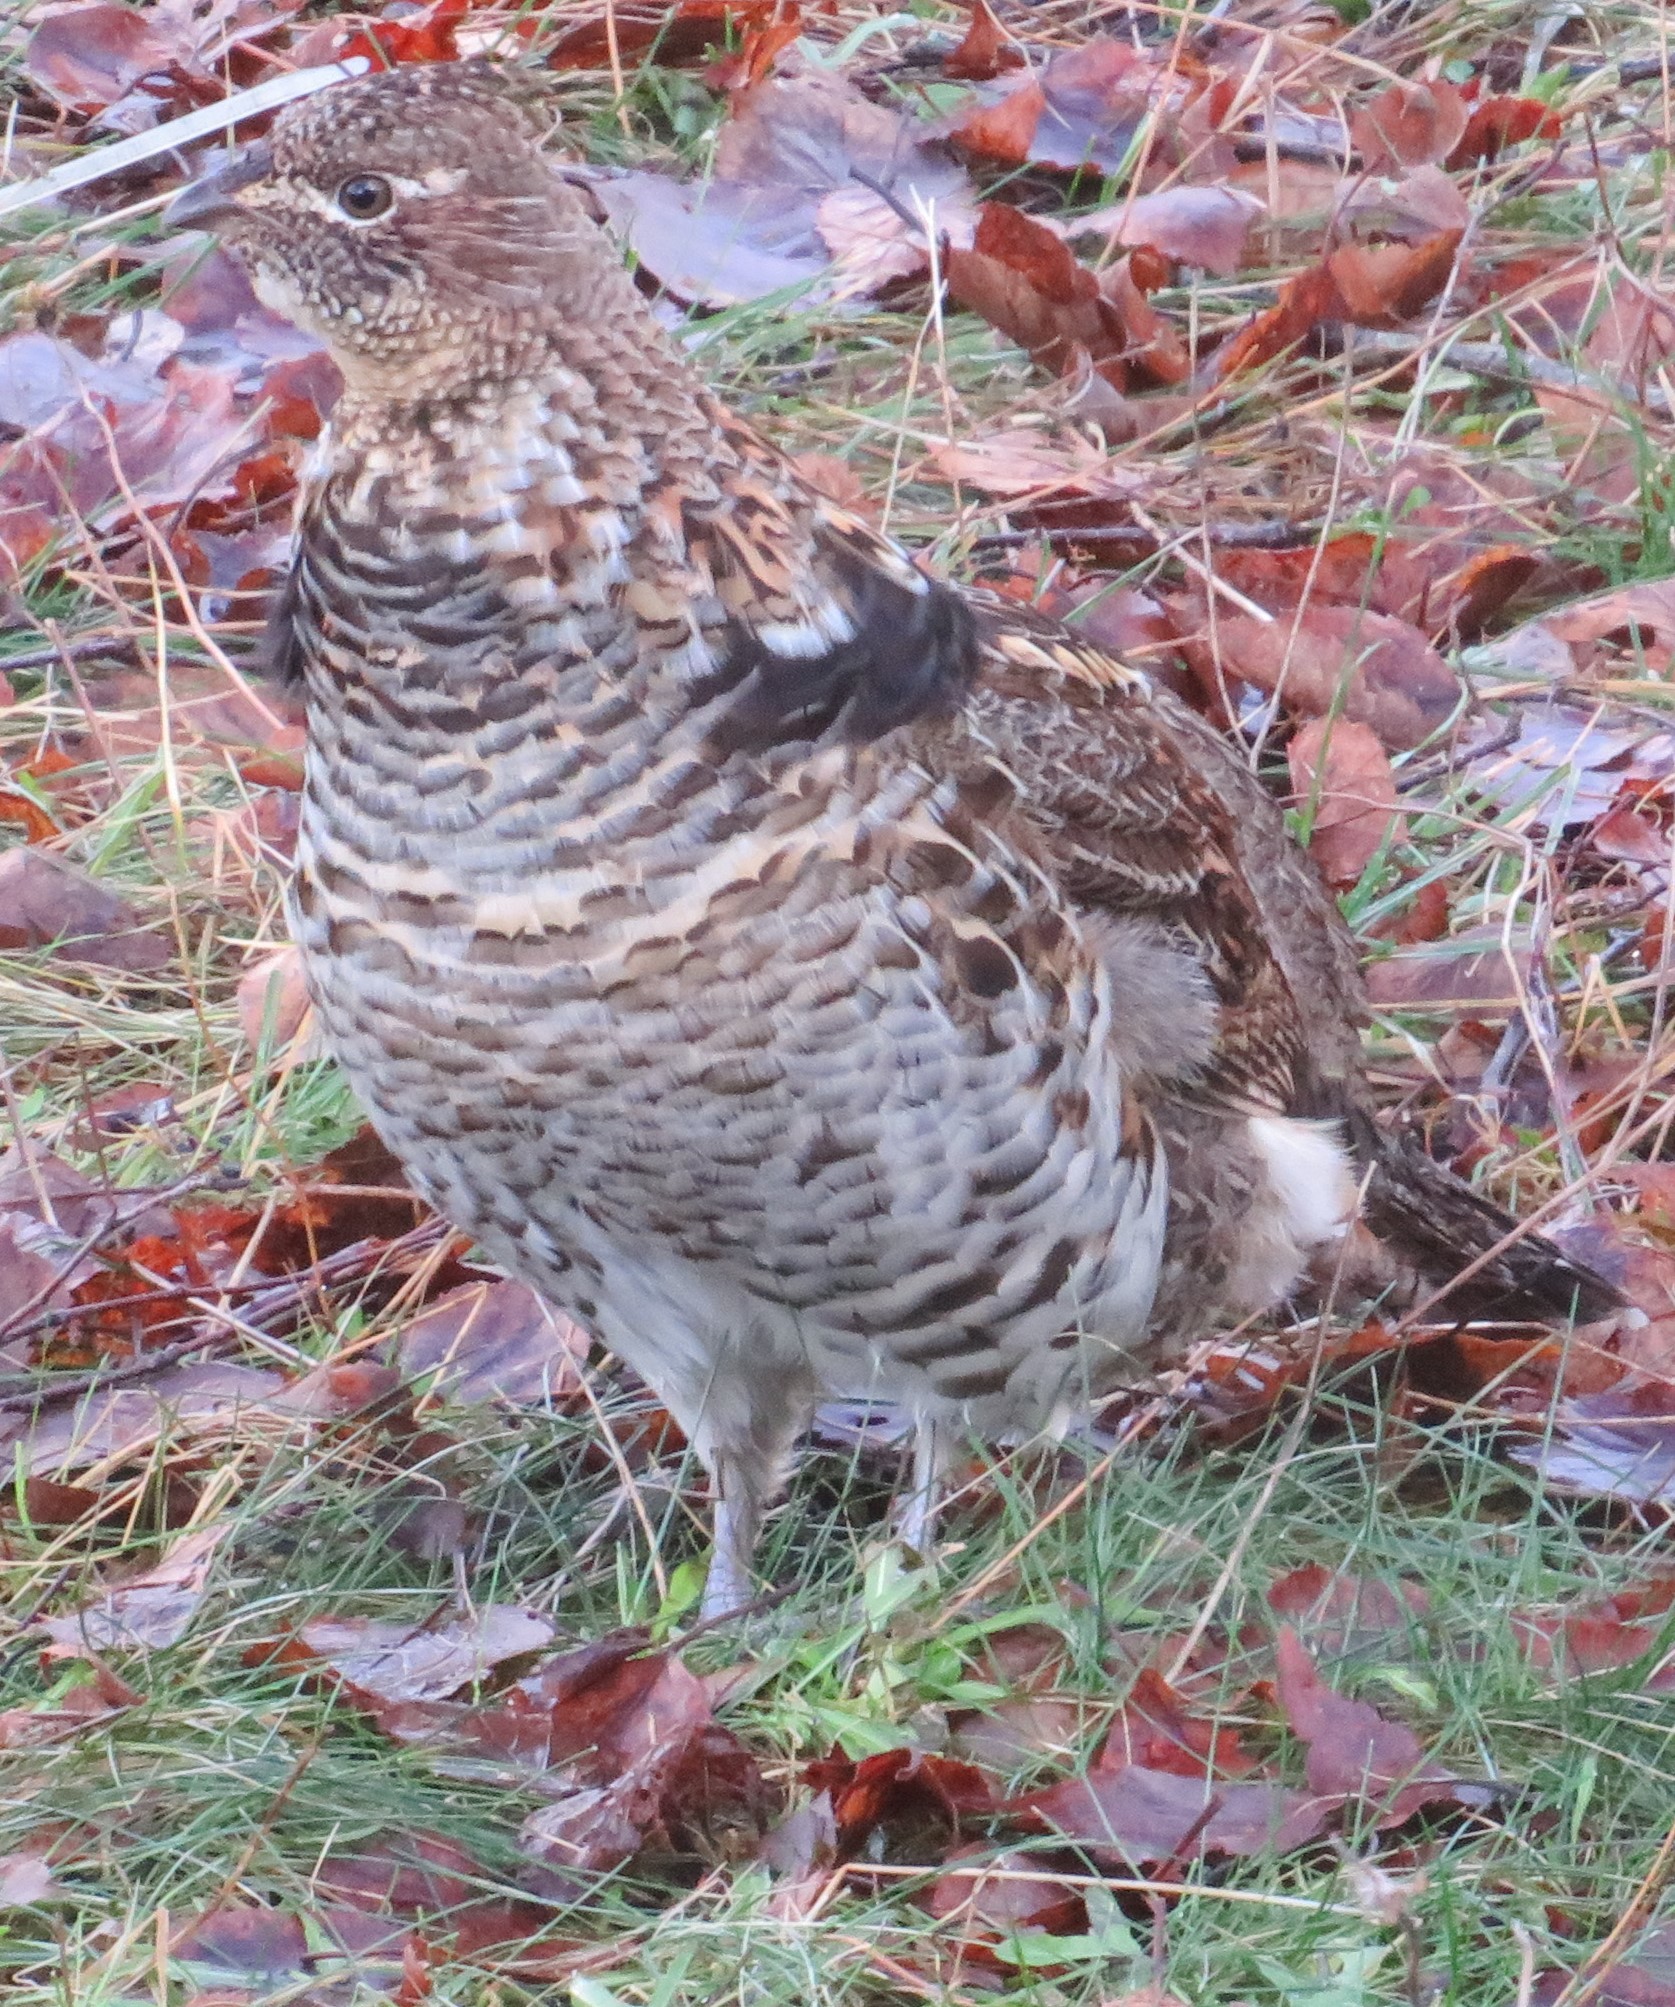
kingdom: Animalia
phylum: Chordata
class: Aves
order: Galliformes
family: Phasianidae
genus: Bonasa
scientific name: Bonasa umbellus
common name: Ruffed grouse
